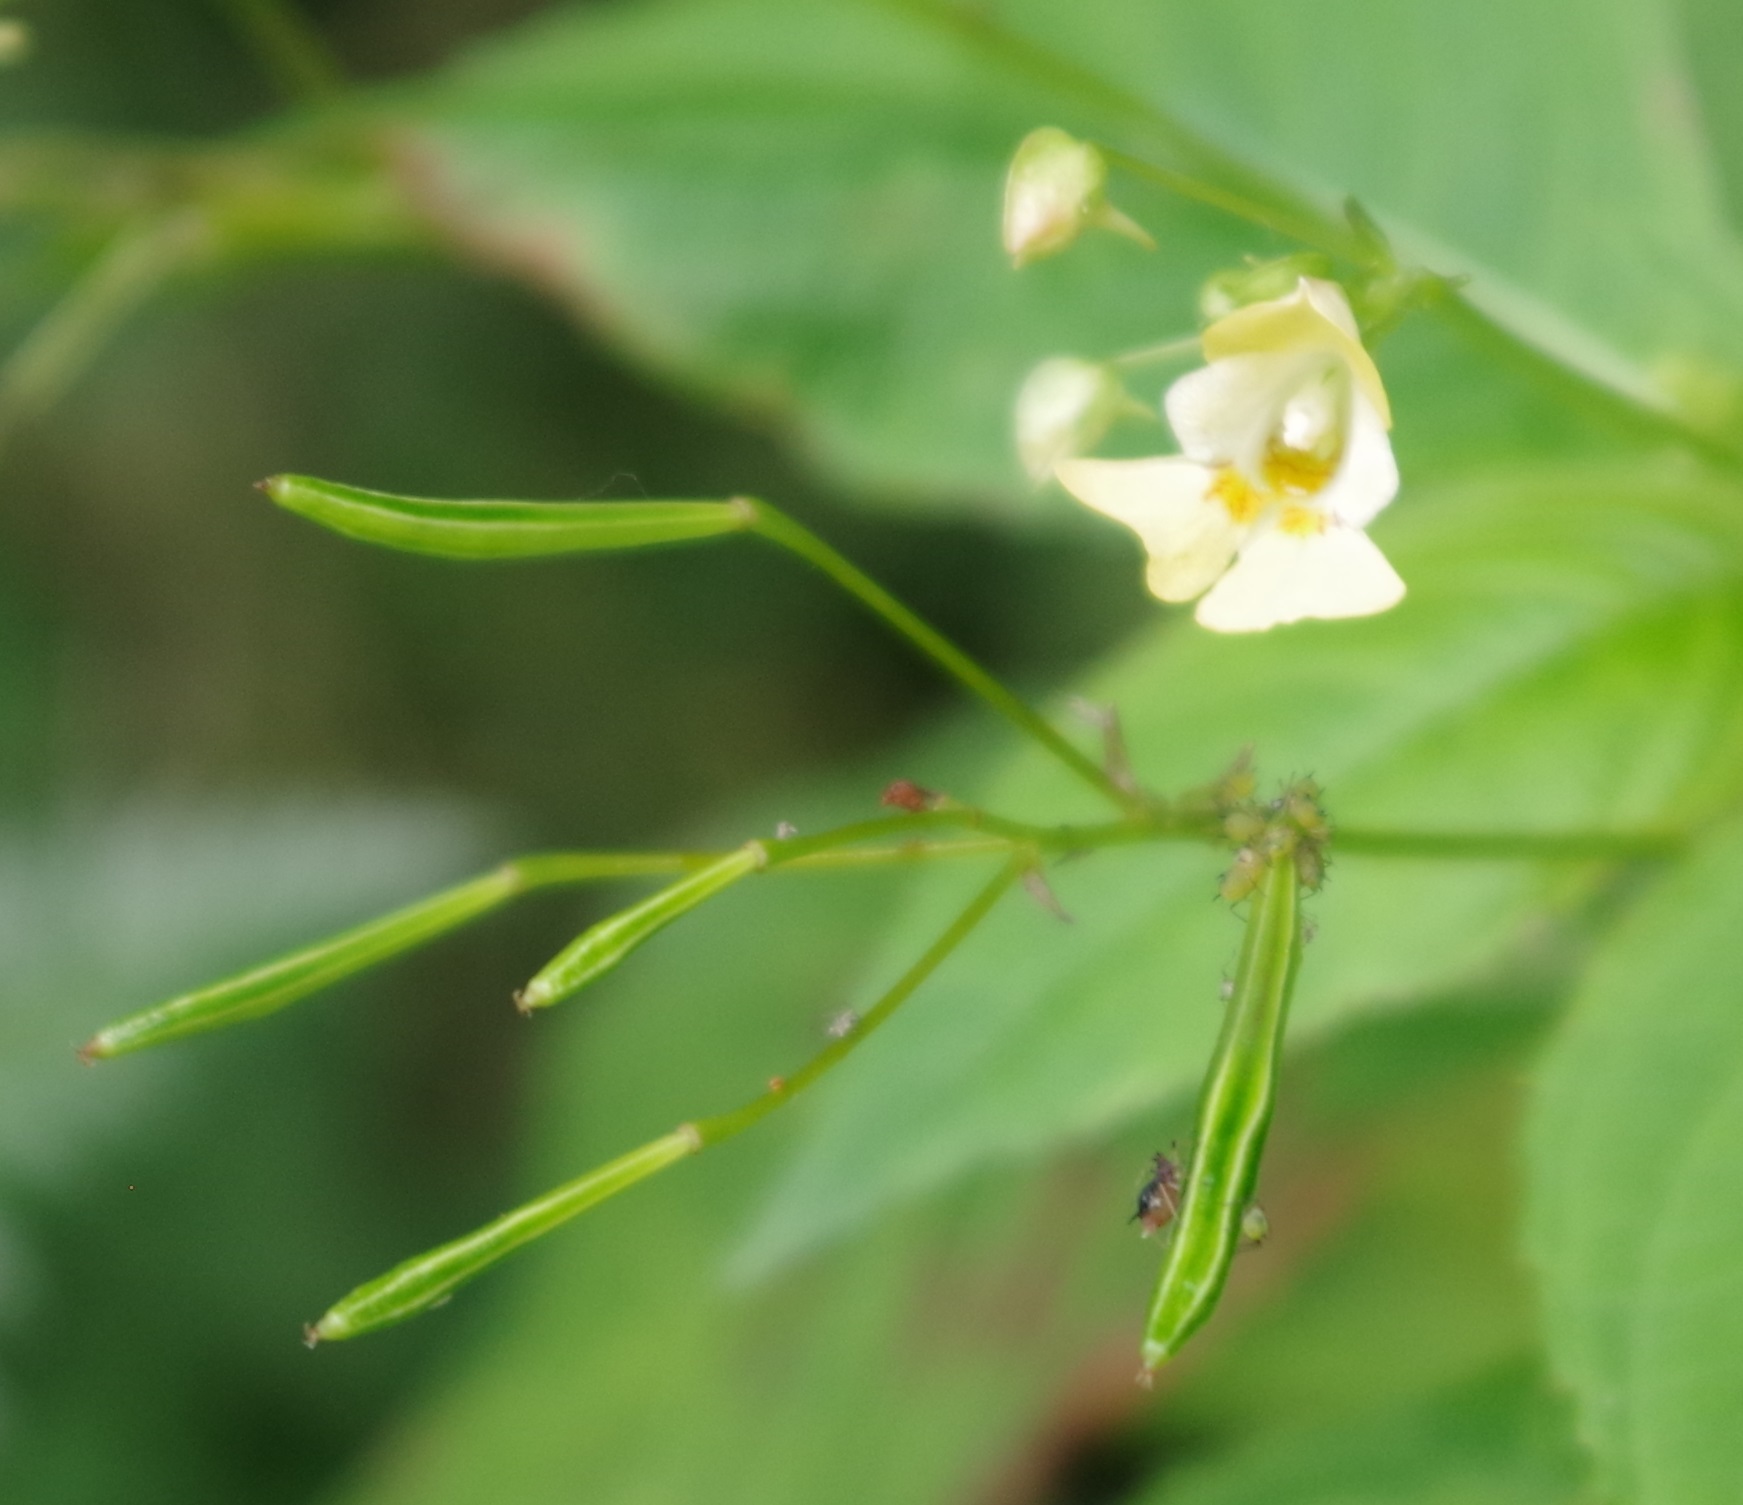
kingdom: Plantae
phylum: Tracheophyta
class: Magnoliopsida
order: Ericales
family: Balsaminaceae
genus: Impatiens
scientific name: Impatiens parviflora
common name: Small balsam
